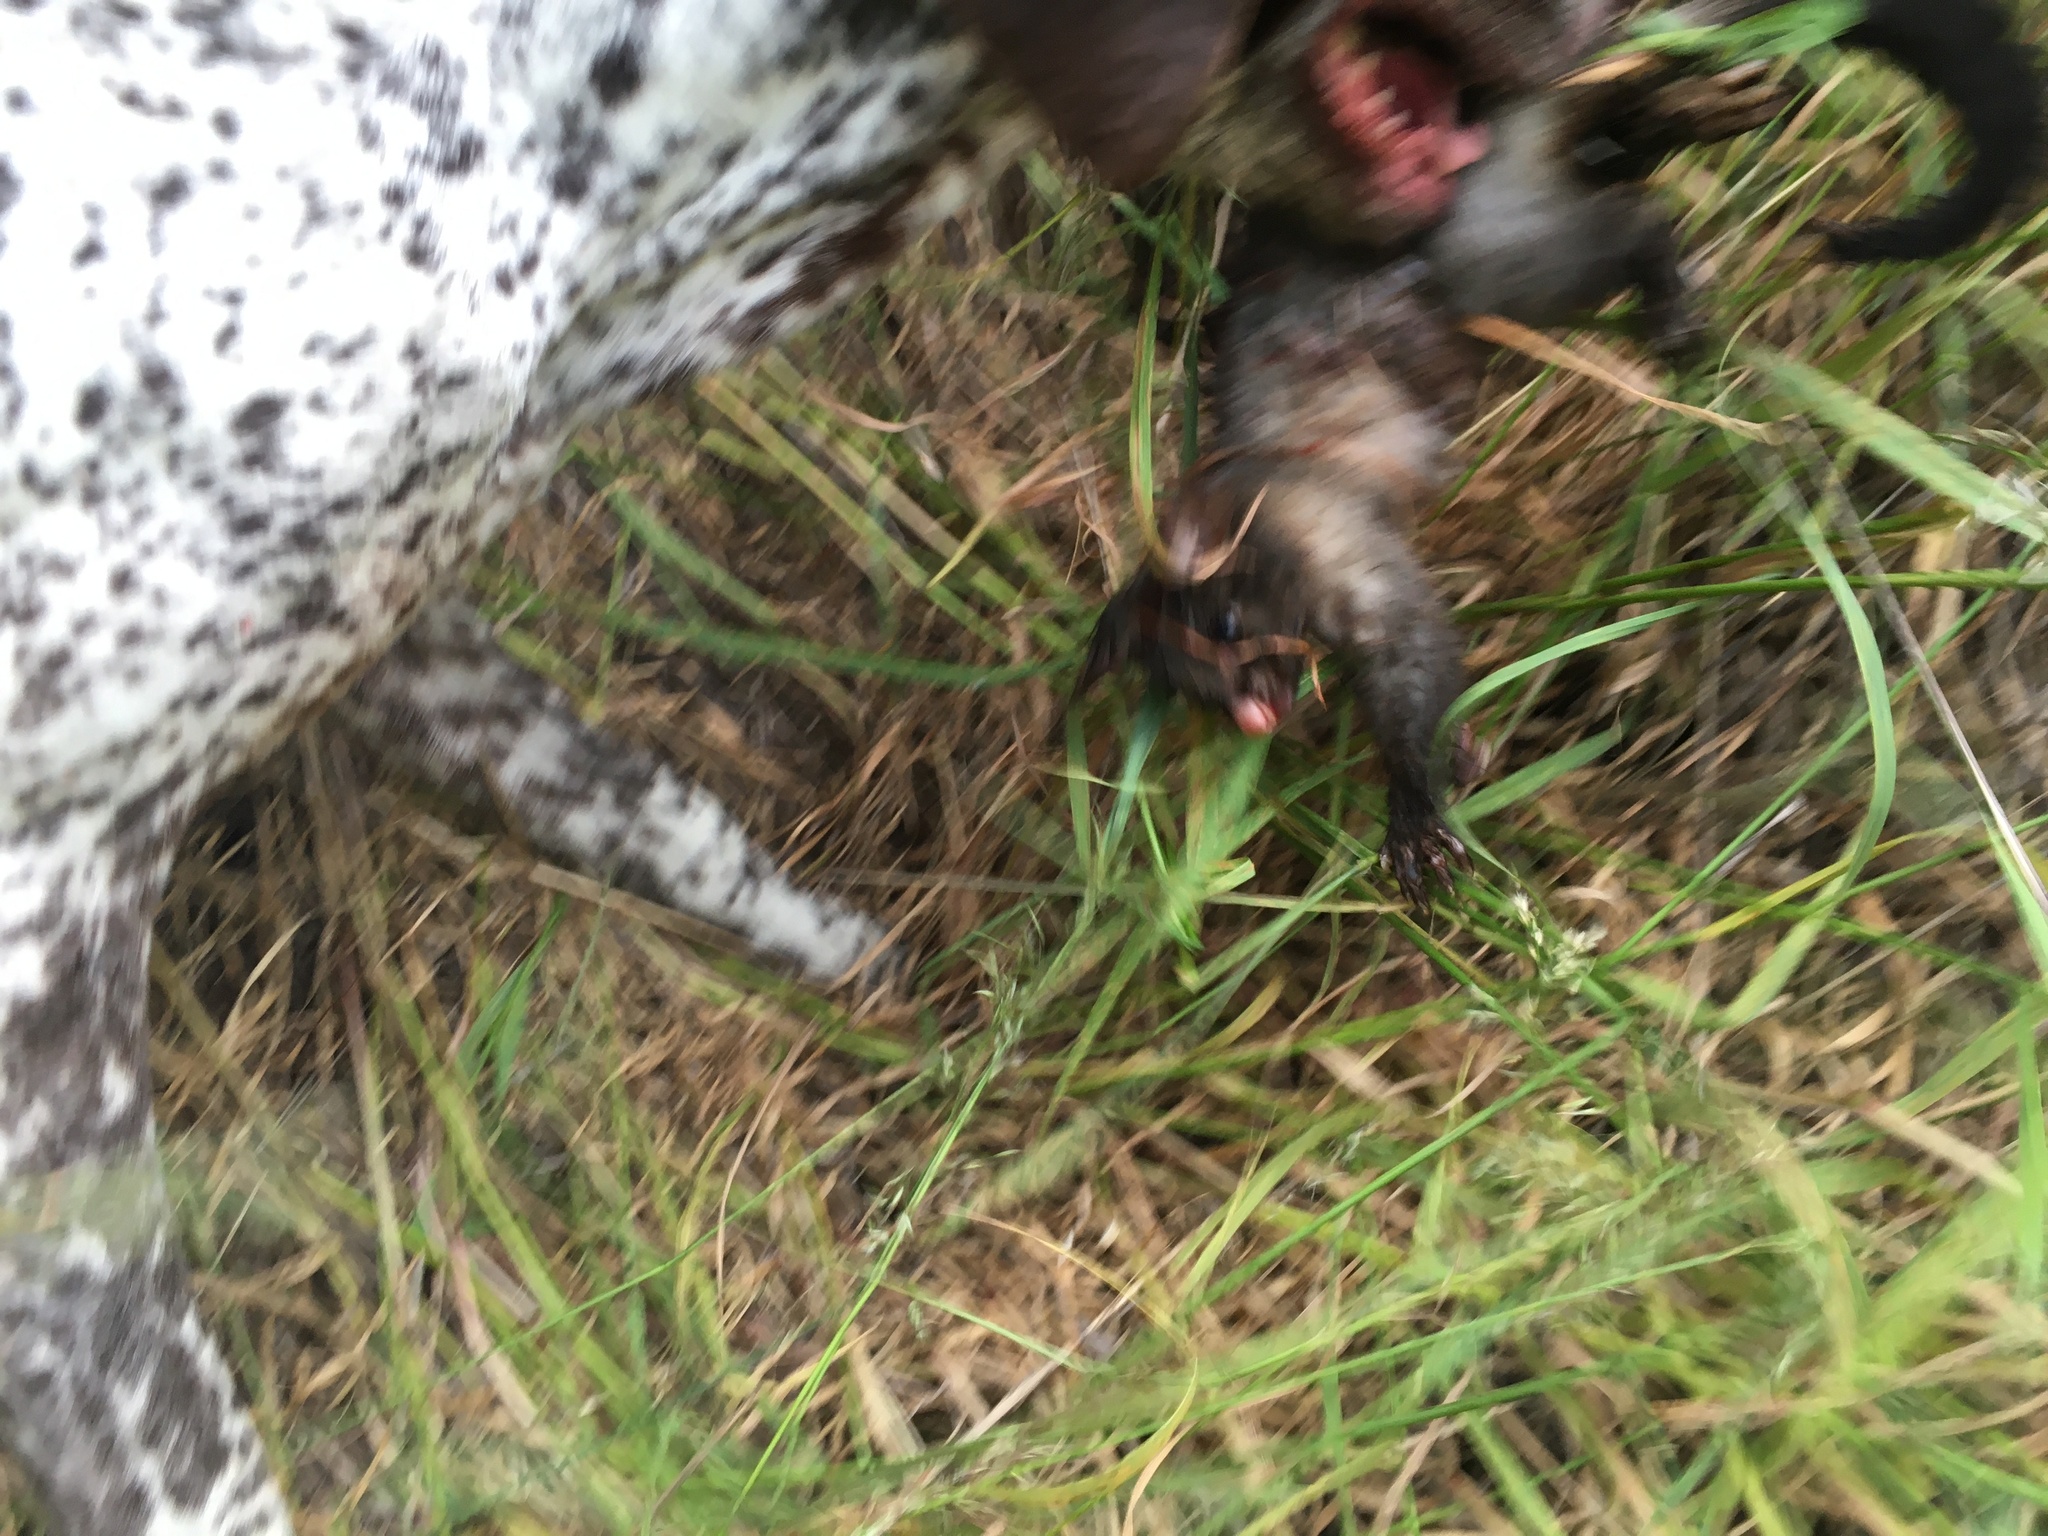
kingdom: Animalia
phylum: Chordata
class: Mammalia
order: Diprotodontia
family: Phalangeridae
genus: Trichosurus
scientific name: Trichosurus vulpecula
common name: Common brushtail
